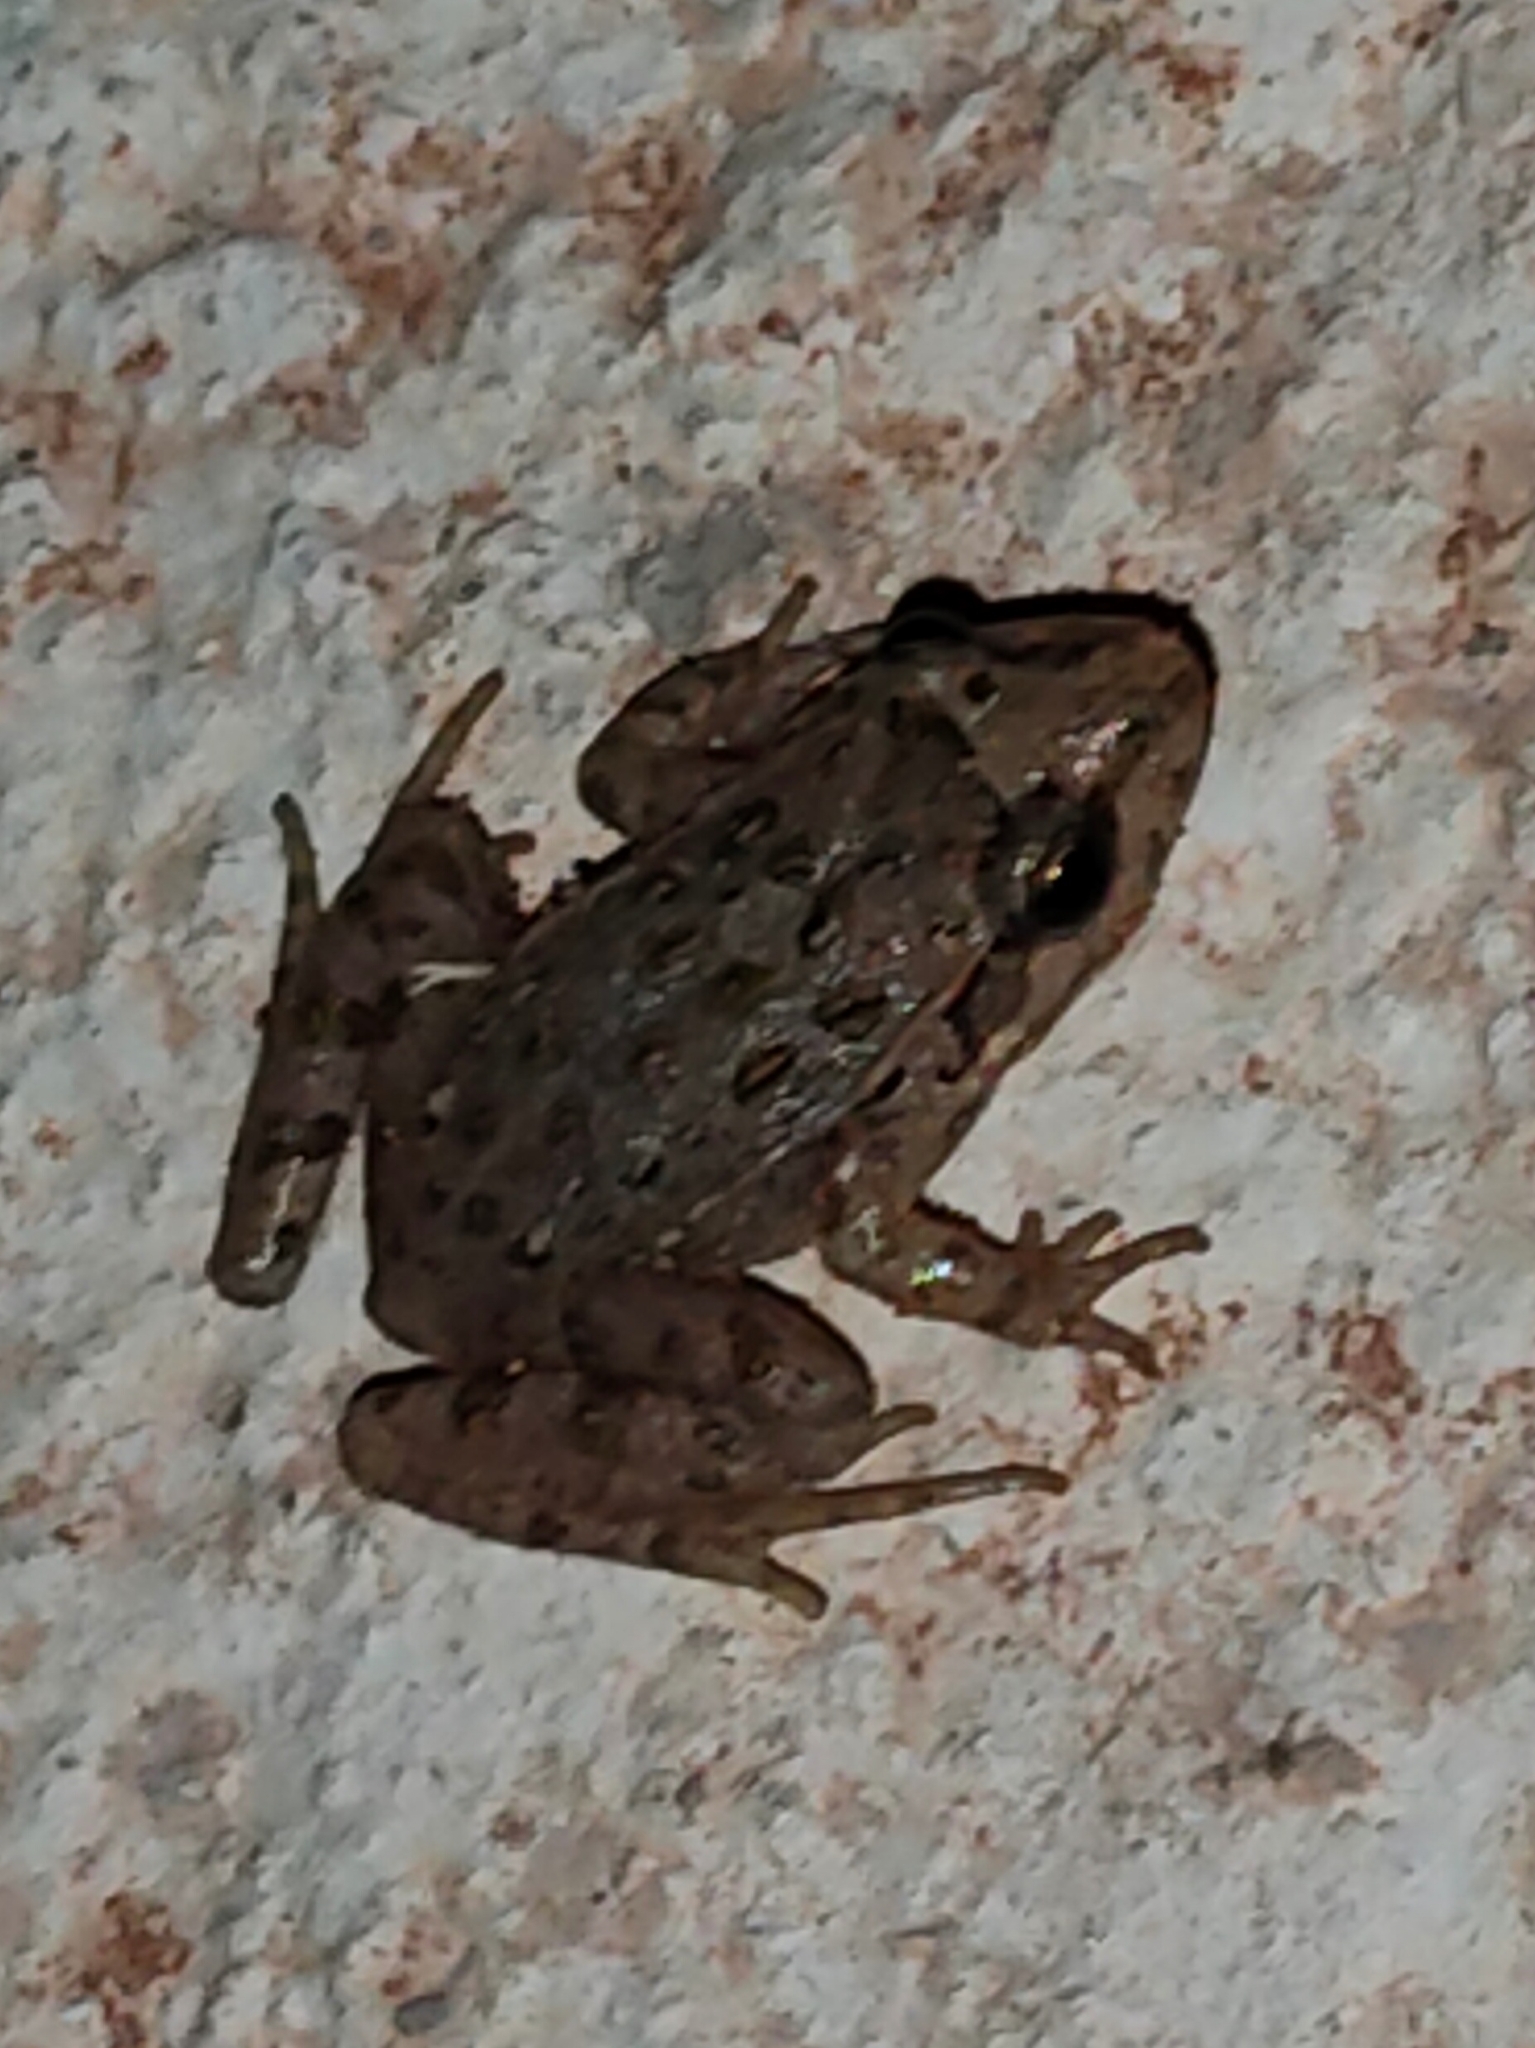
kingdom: Animalia
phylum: Chordata
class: Amphibia
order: Anura
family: Alytidae
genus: Discoglossus
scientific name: Discoglossus pictus
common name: Painted frog
